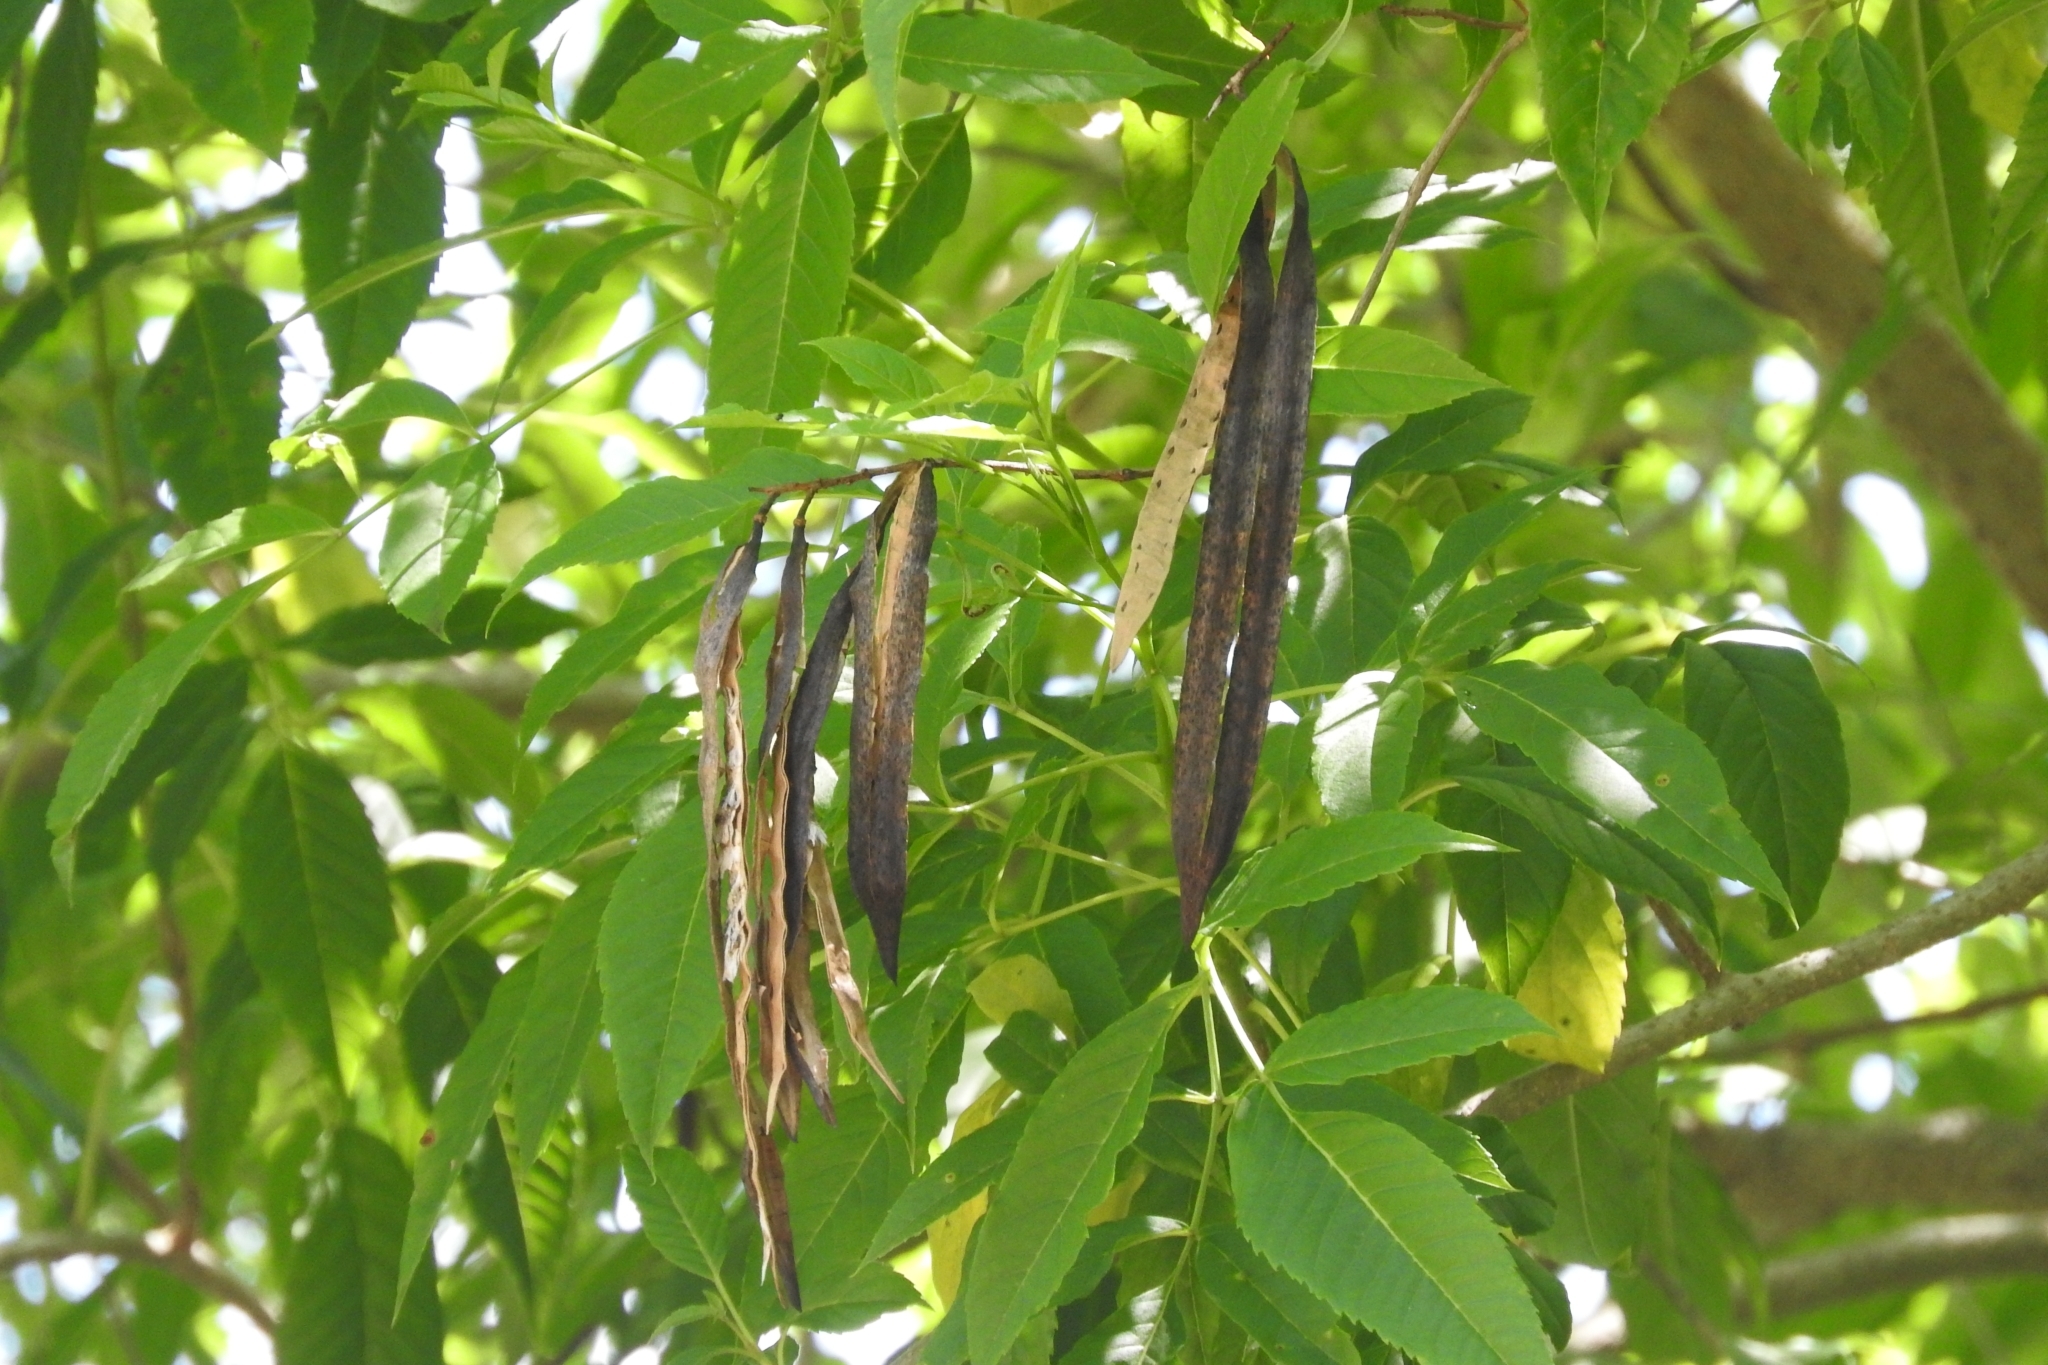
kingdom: Plantae
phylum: Tracheophyta
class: Magnoliopsida
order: Lamiales
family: Bignoniaceae
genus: Tecoma
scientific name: Tecoma stans
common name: Yellow trumpetbush
